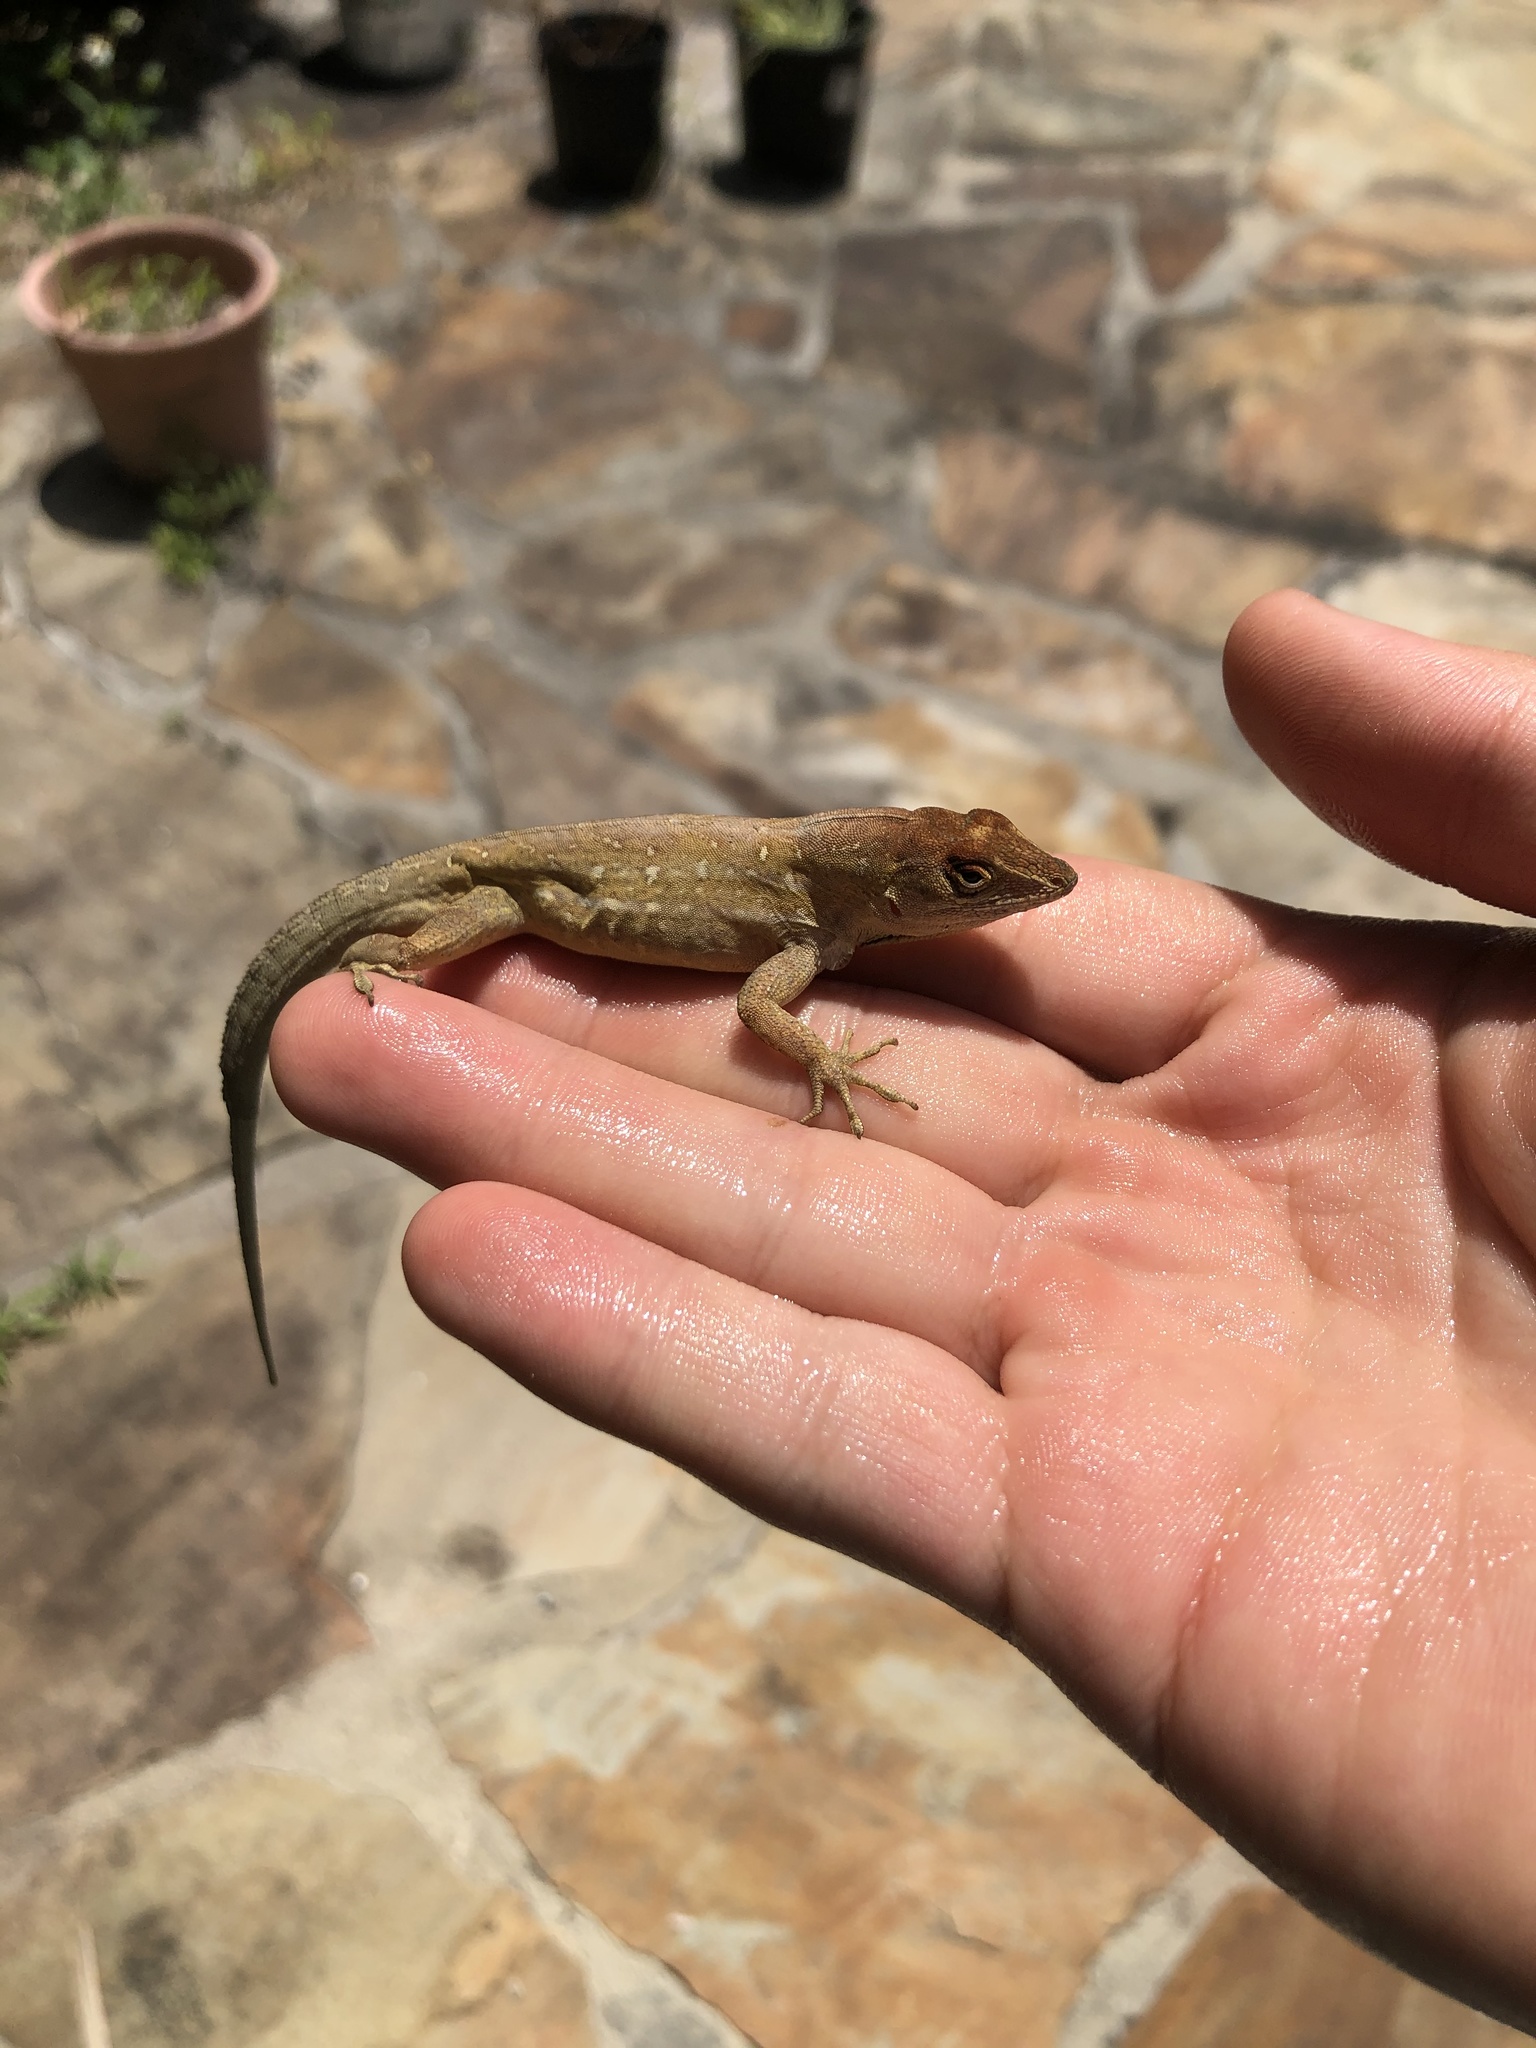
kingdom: Animalia
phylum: Chordata
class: Squamata
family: Dactyloidae
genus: Anolis
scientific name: Anolis sagrei
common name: Brown anole
